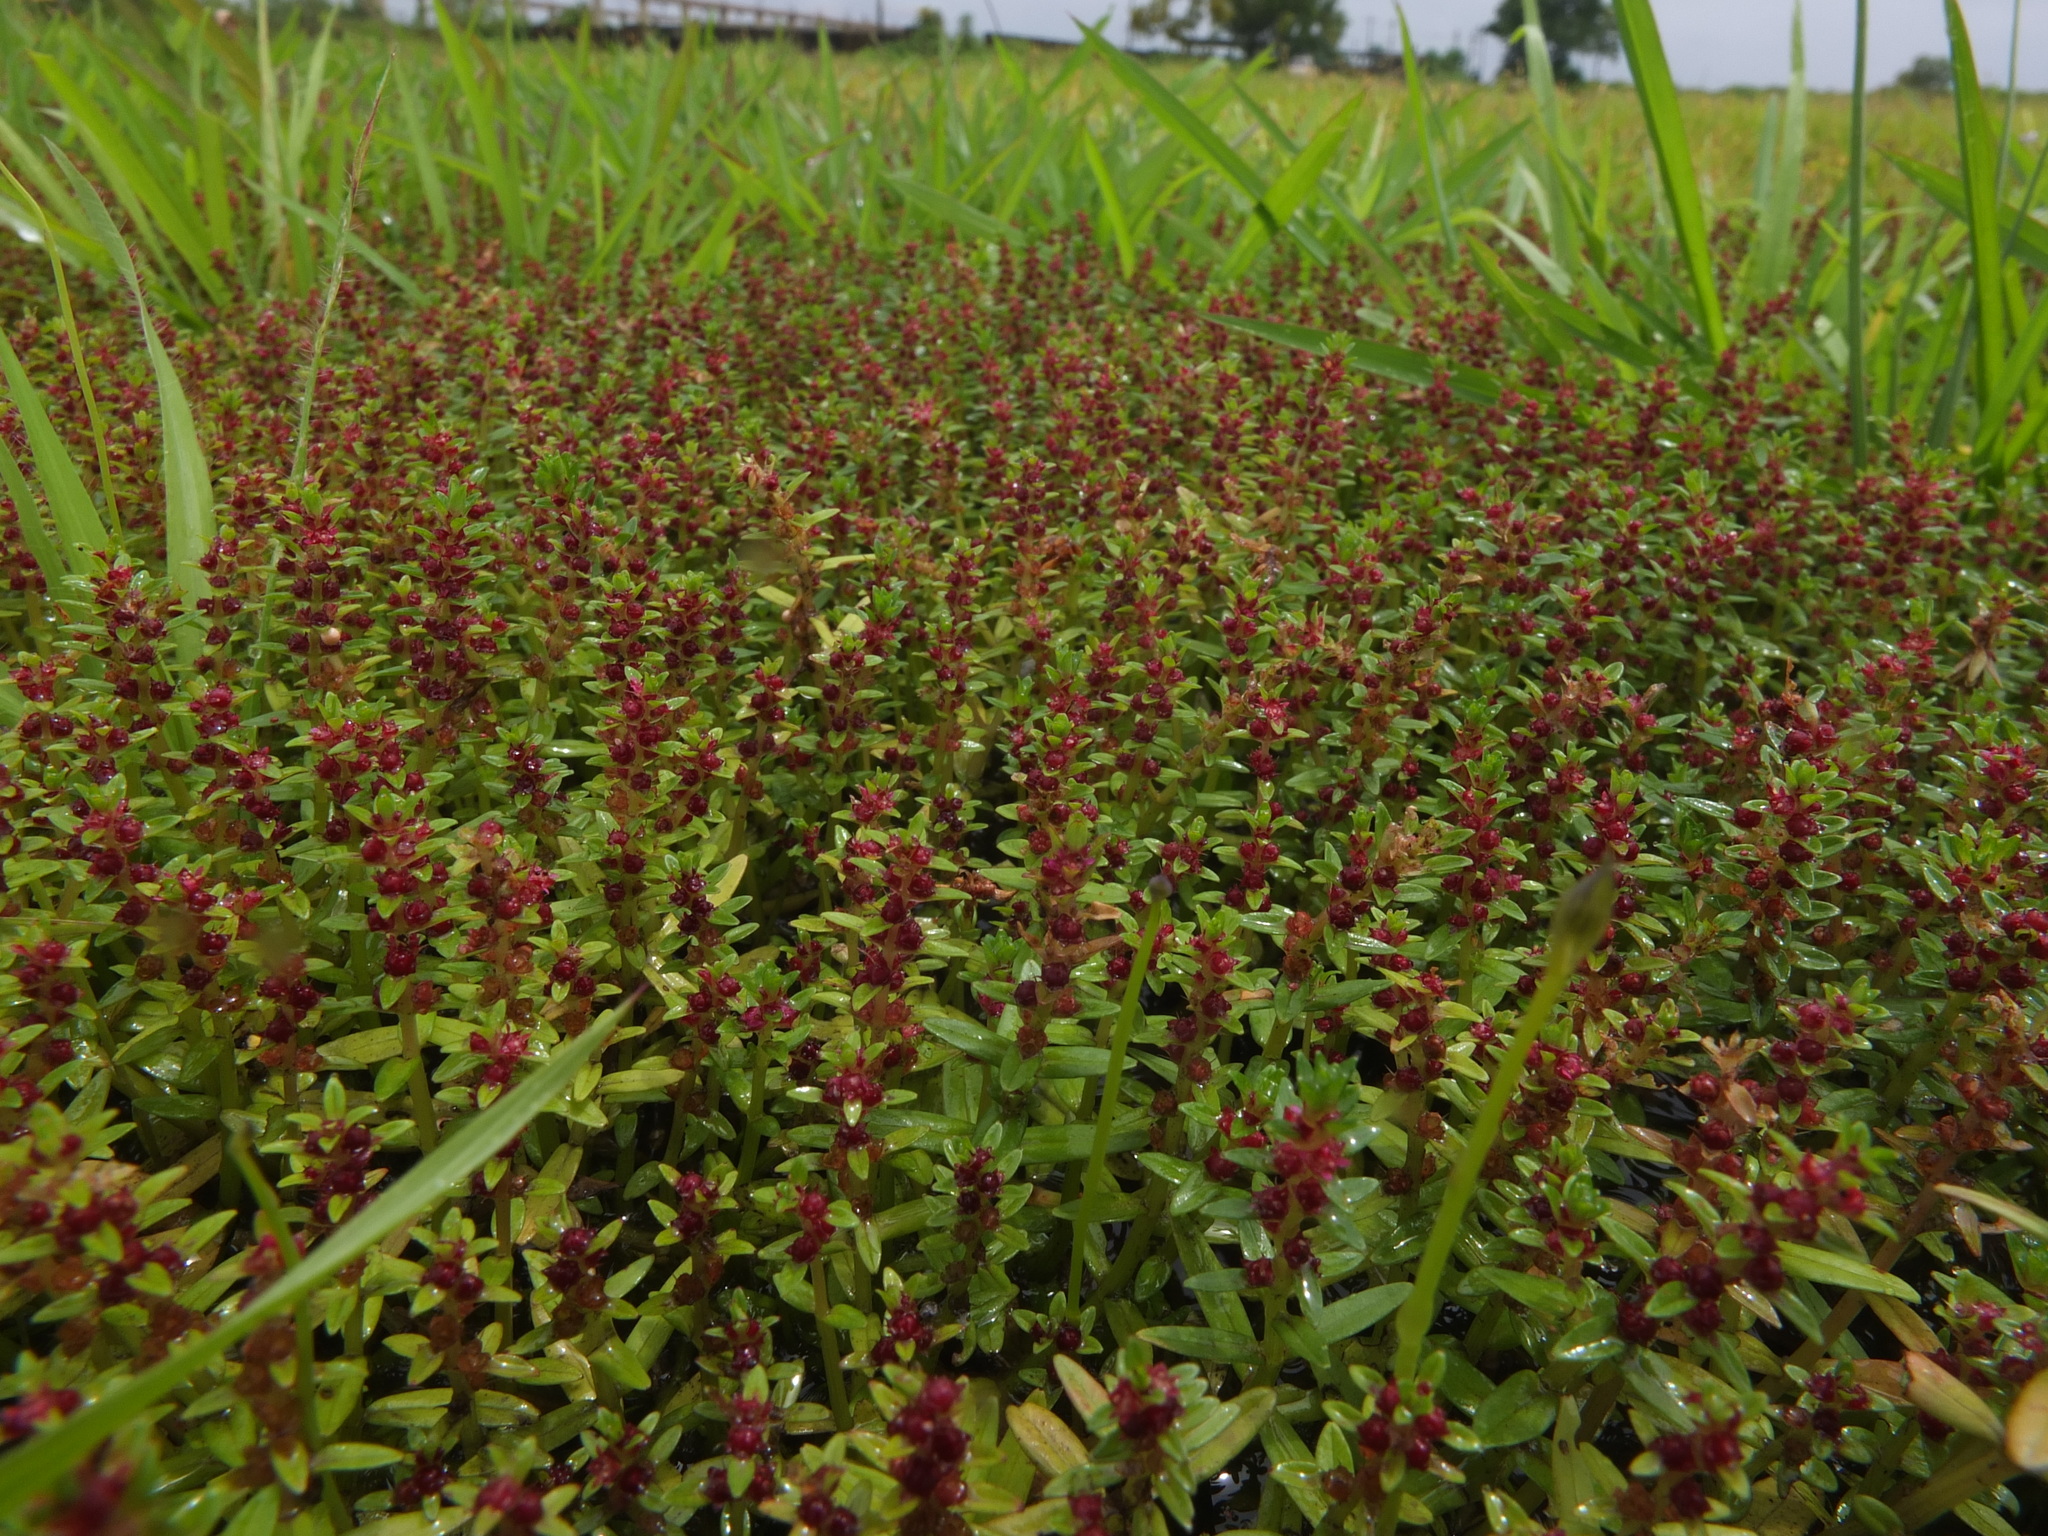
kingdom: Plantae
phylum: Tracheophyta
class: Magnoliopsida
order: Myrtales
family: Lythraceae
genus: Rotala
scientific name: Rotala malampuzhensis
